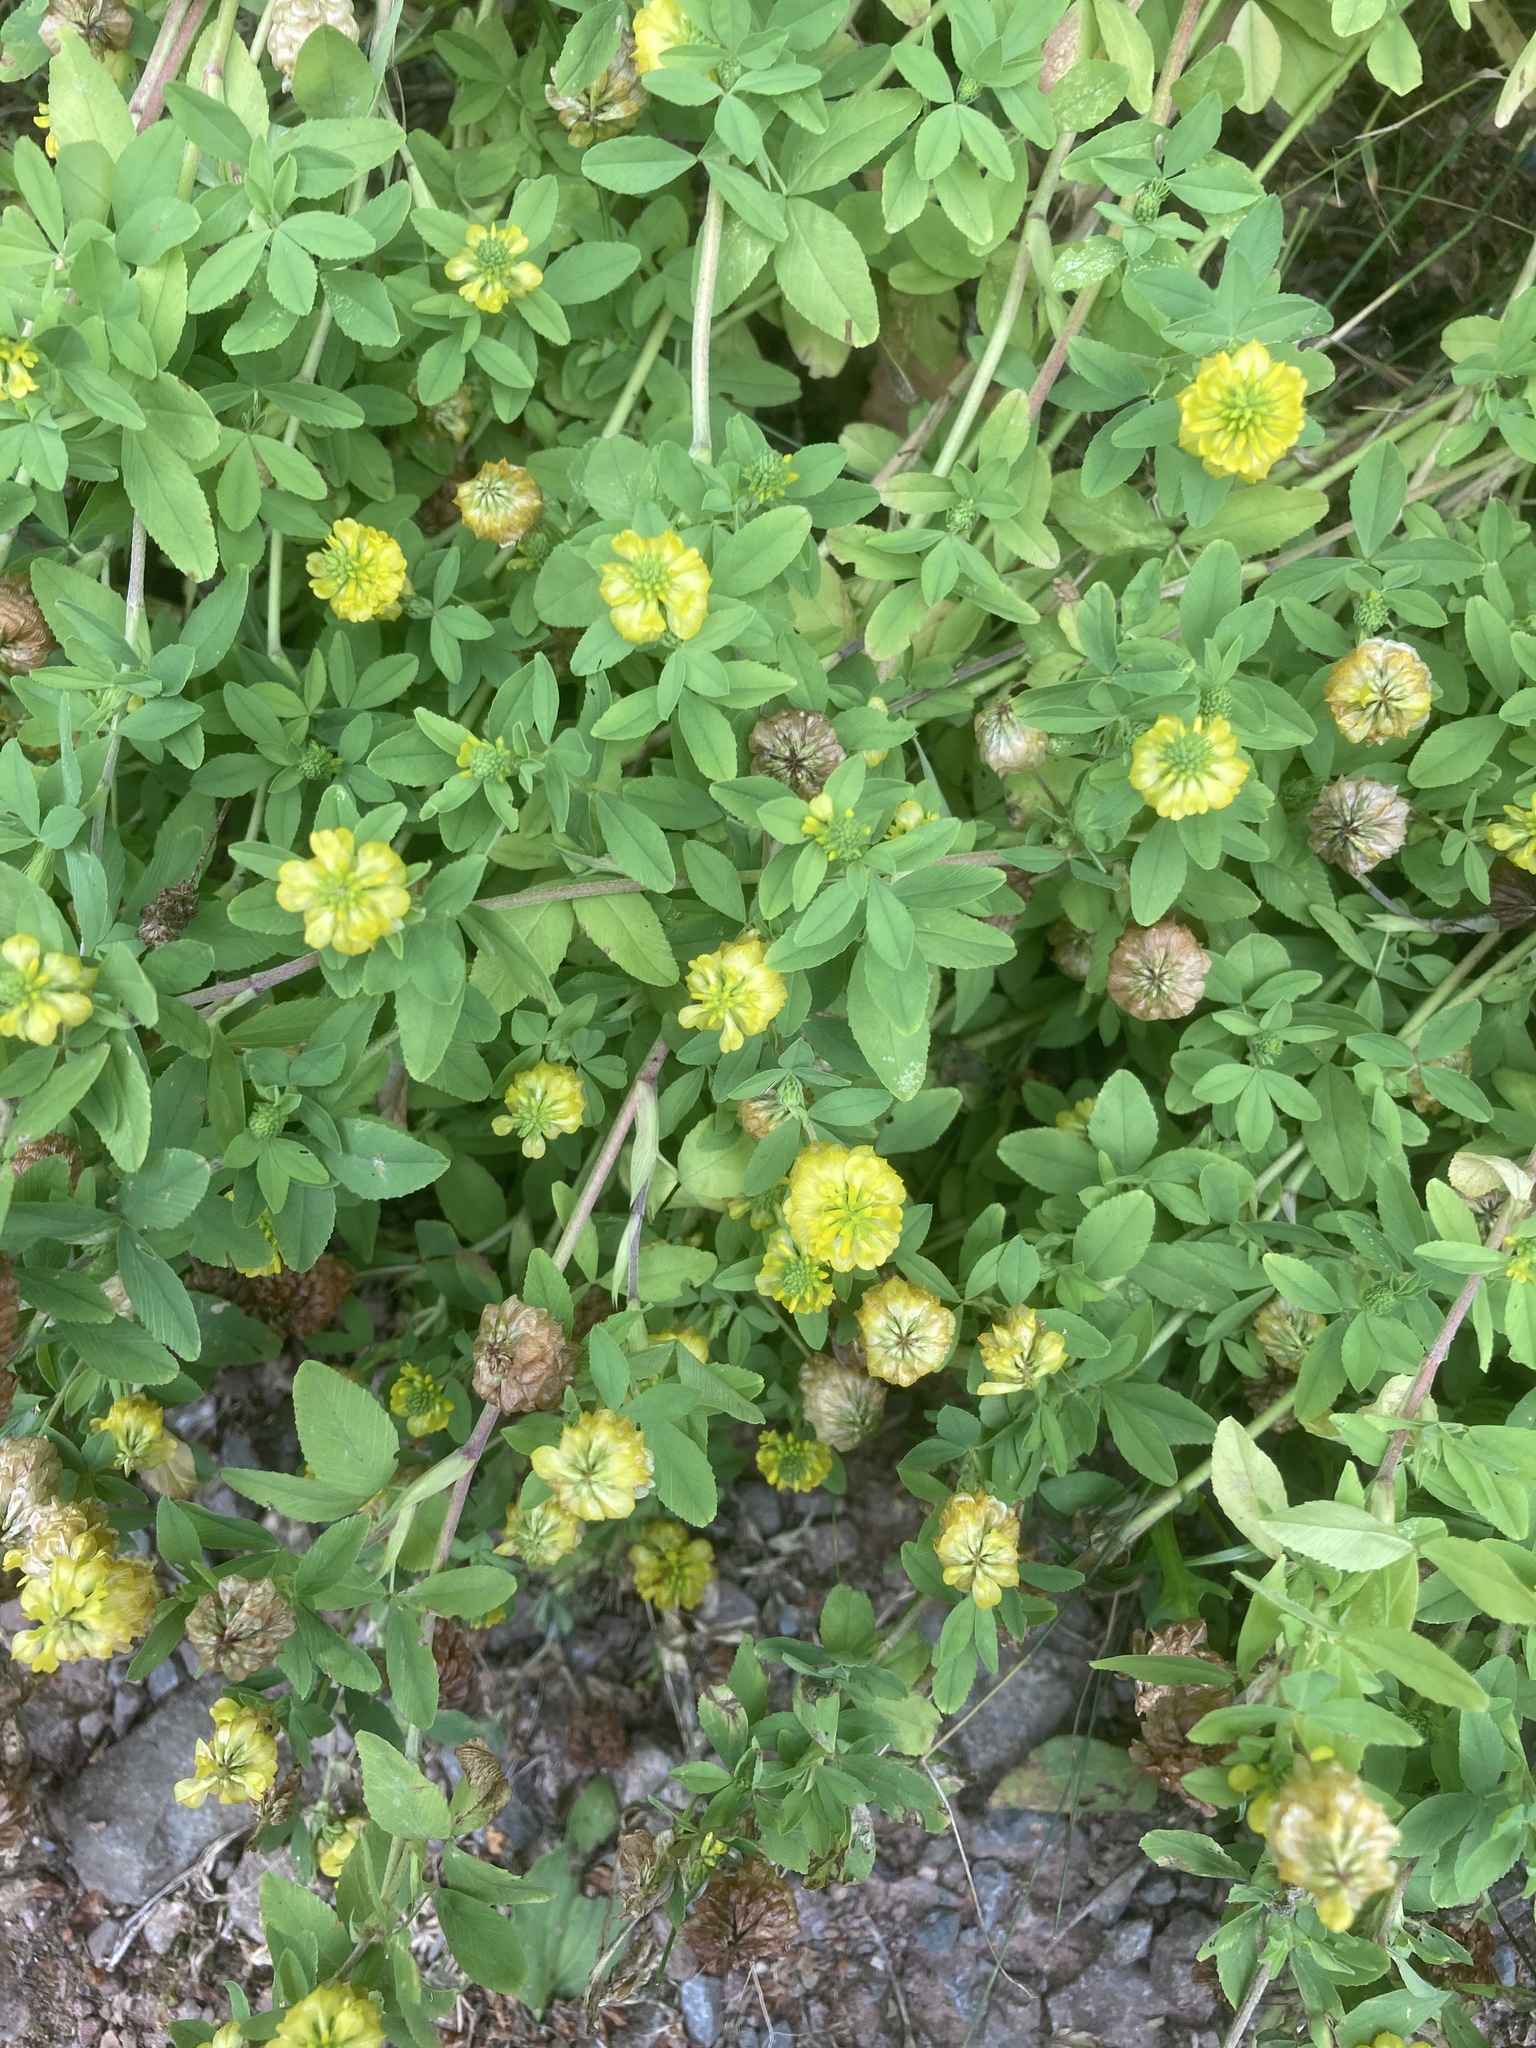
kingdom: Plantae
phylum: Tracheophyta
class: Magnoliopsida
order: Fabales
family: Fabaceae
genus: Trifolium
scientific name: Trifolium aureum
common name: Golden clover
